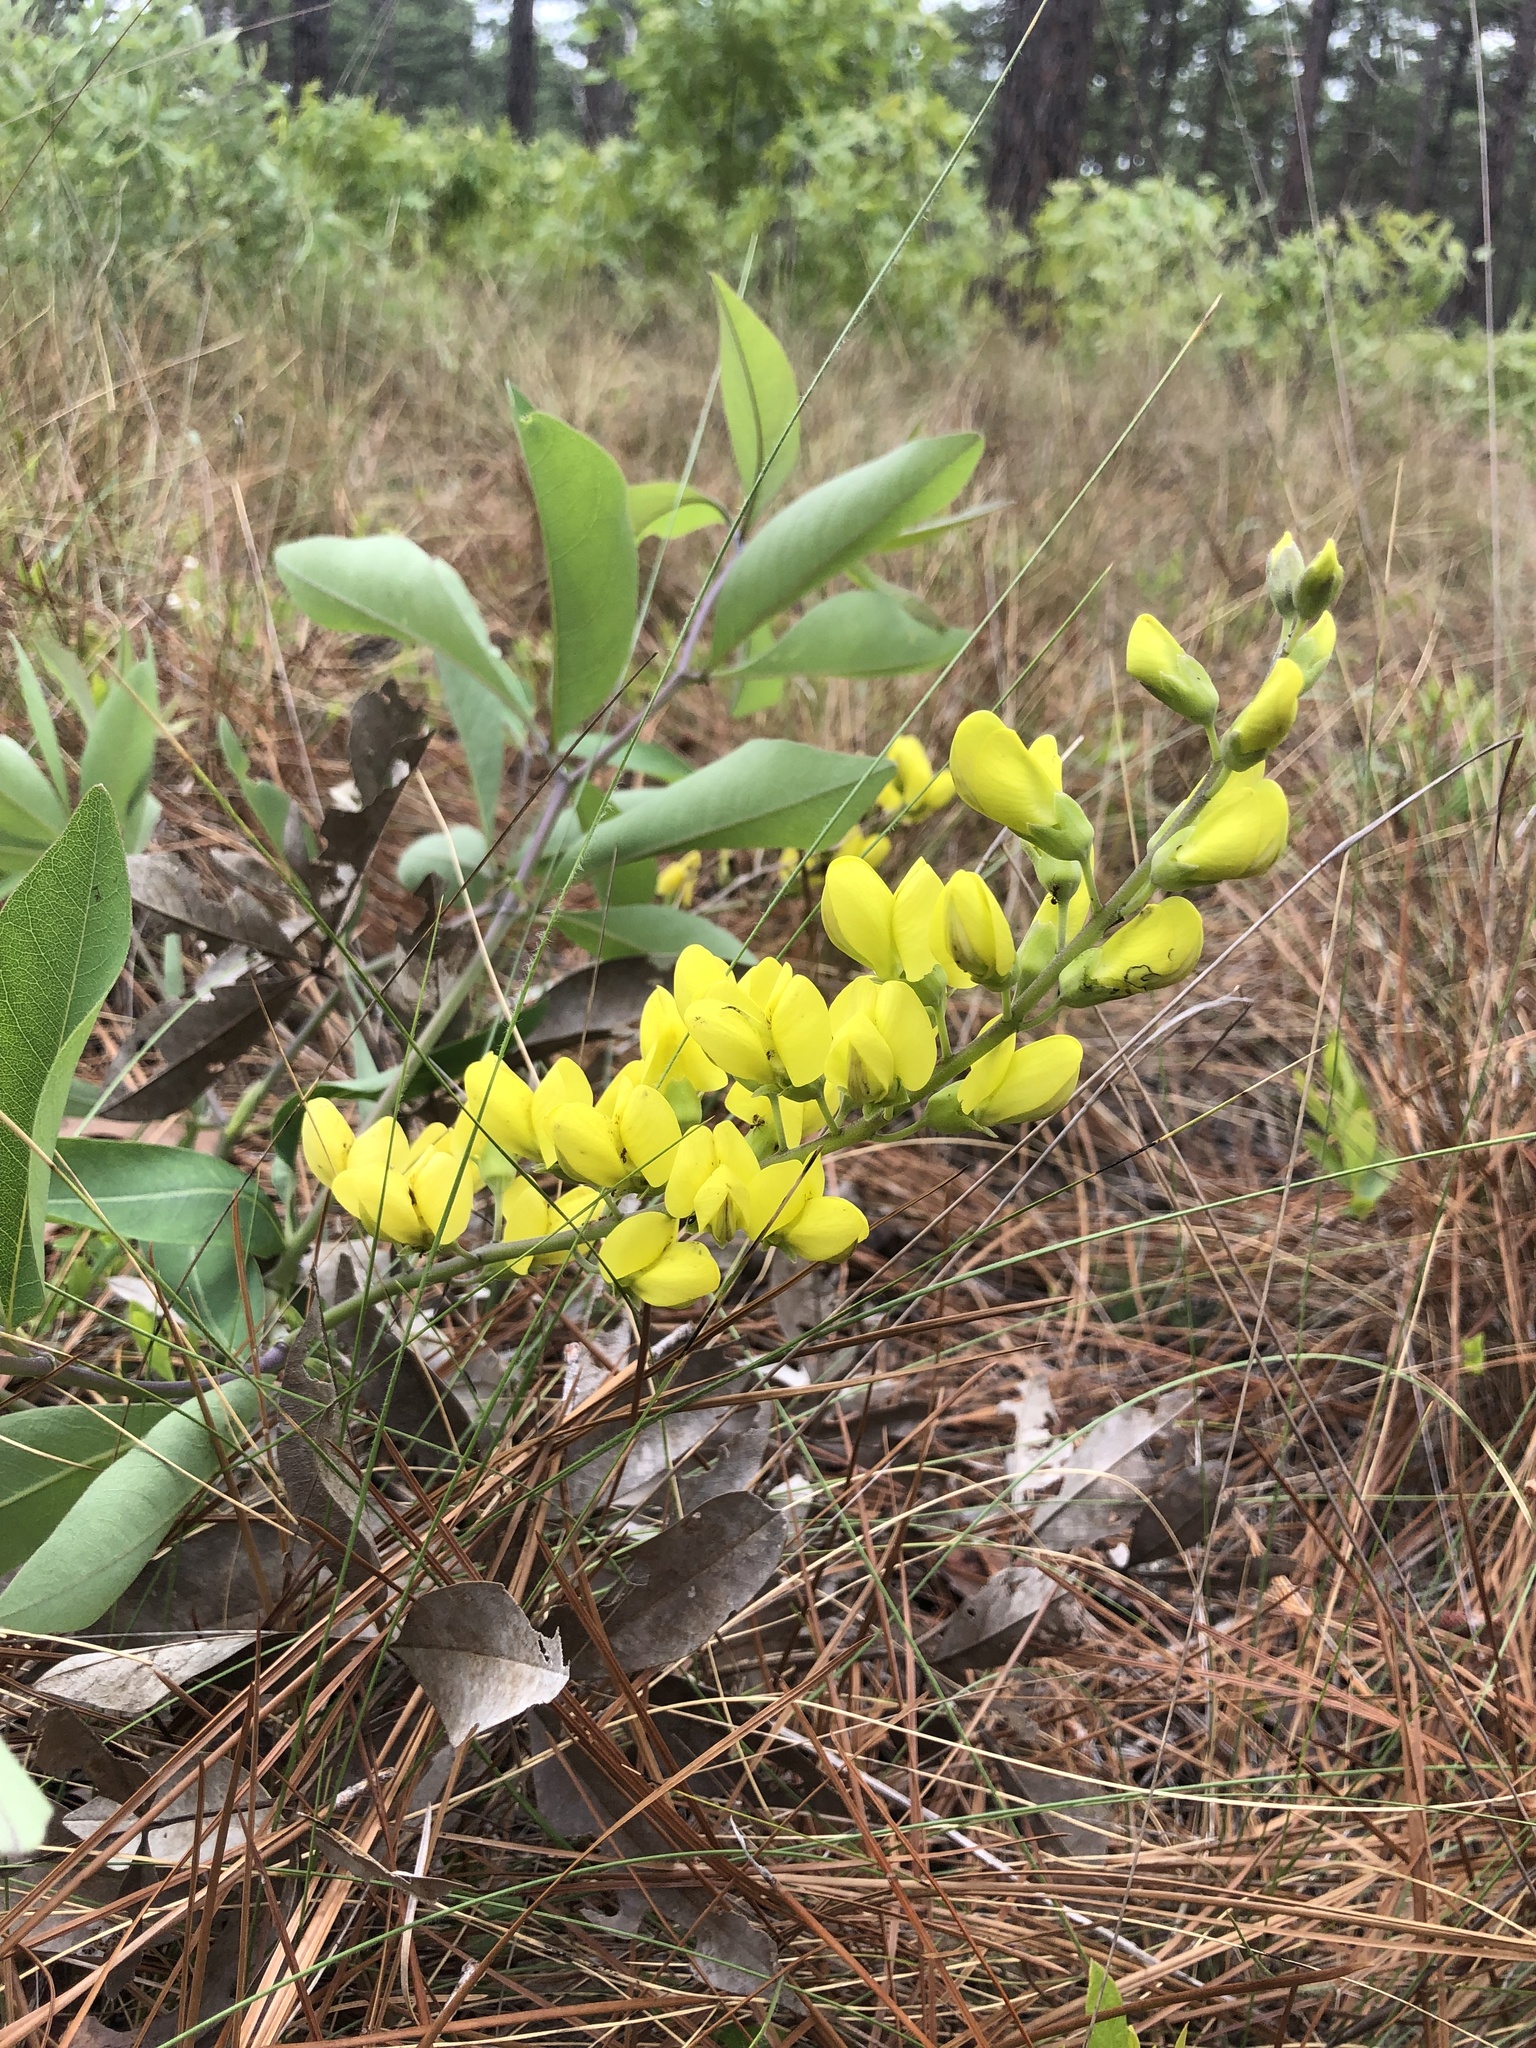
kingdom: Plantae
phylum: Tracheophyta
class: Magnoliopsida
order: Fabales
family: Fabaceae
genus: Baptisia
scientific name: Baptisia cinerea
